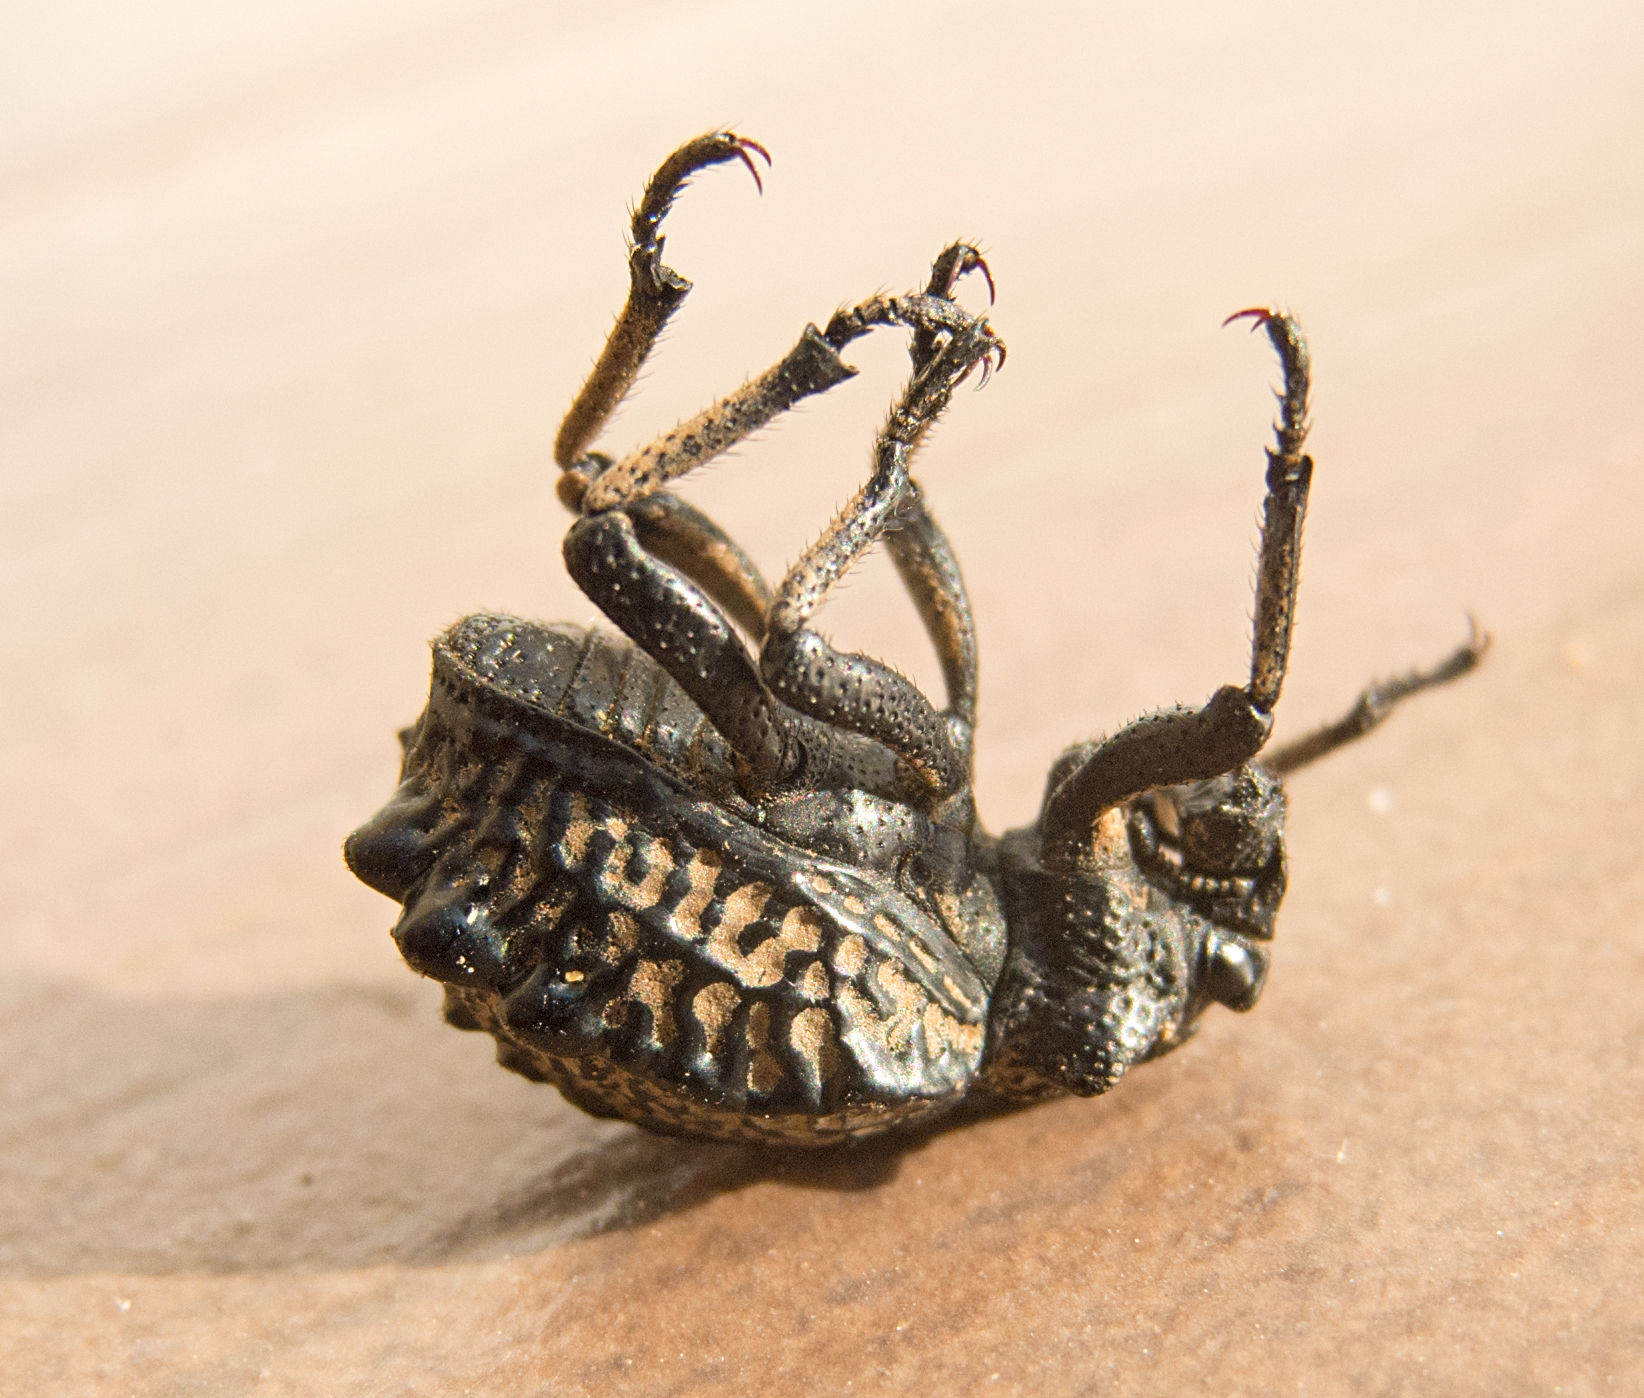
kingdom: Animalia
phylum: Arthropoda
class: Insecta
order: Coleoptera
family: Brachyceridae
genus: Brachycerus
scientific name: Brachycerus undatus
